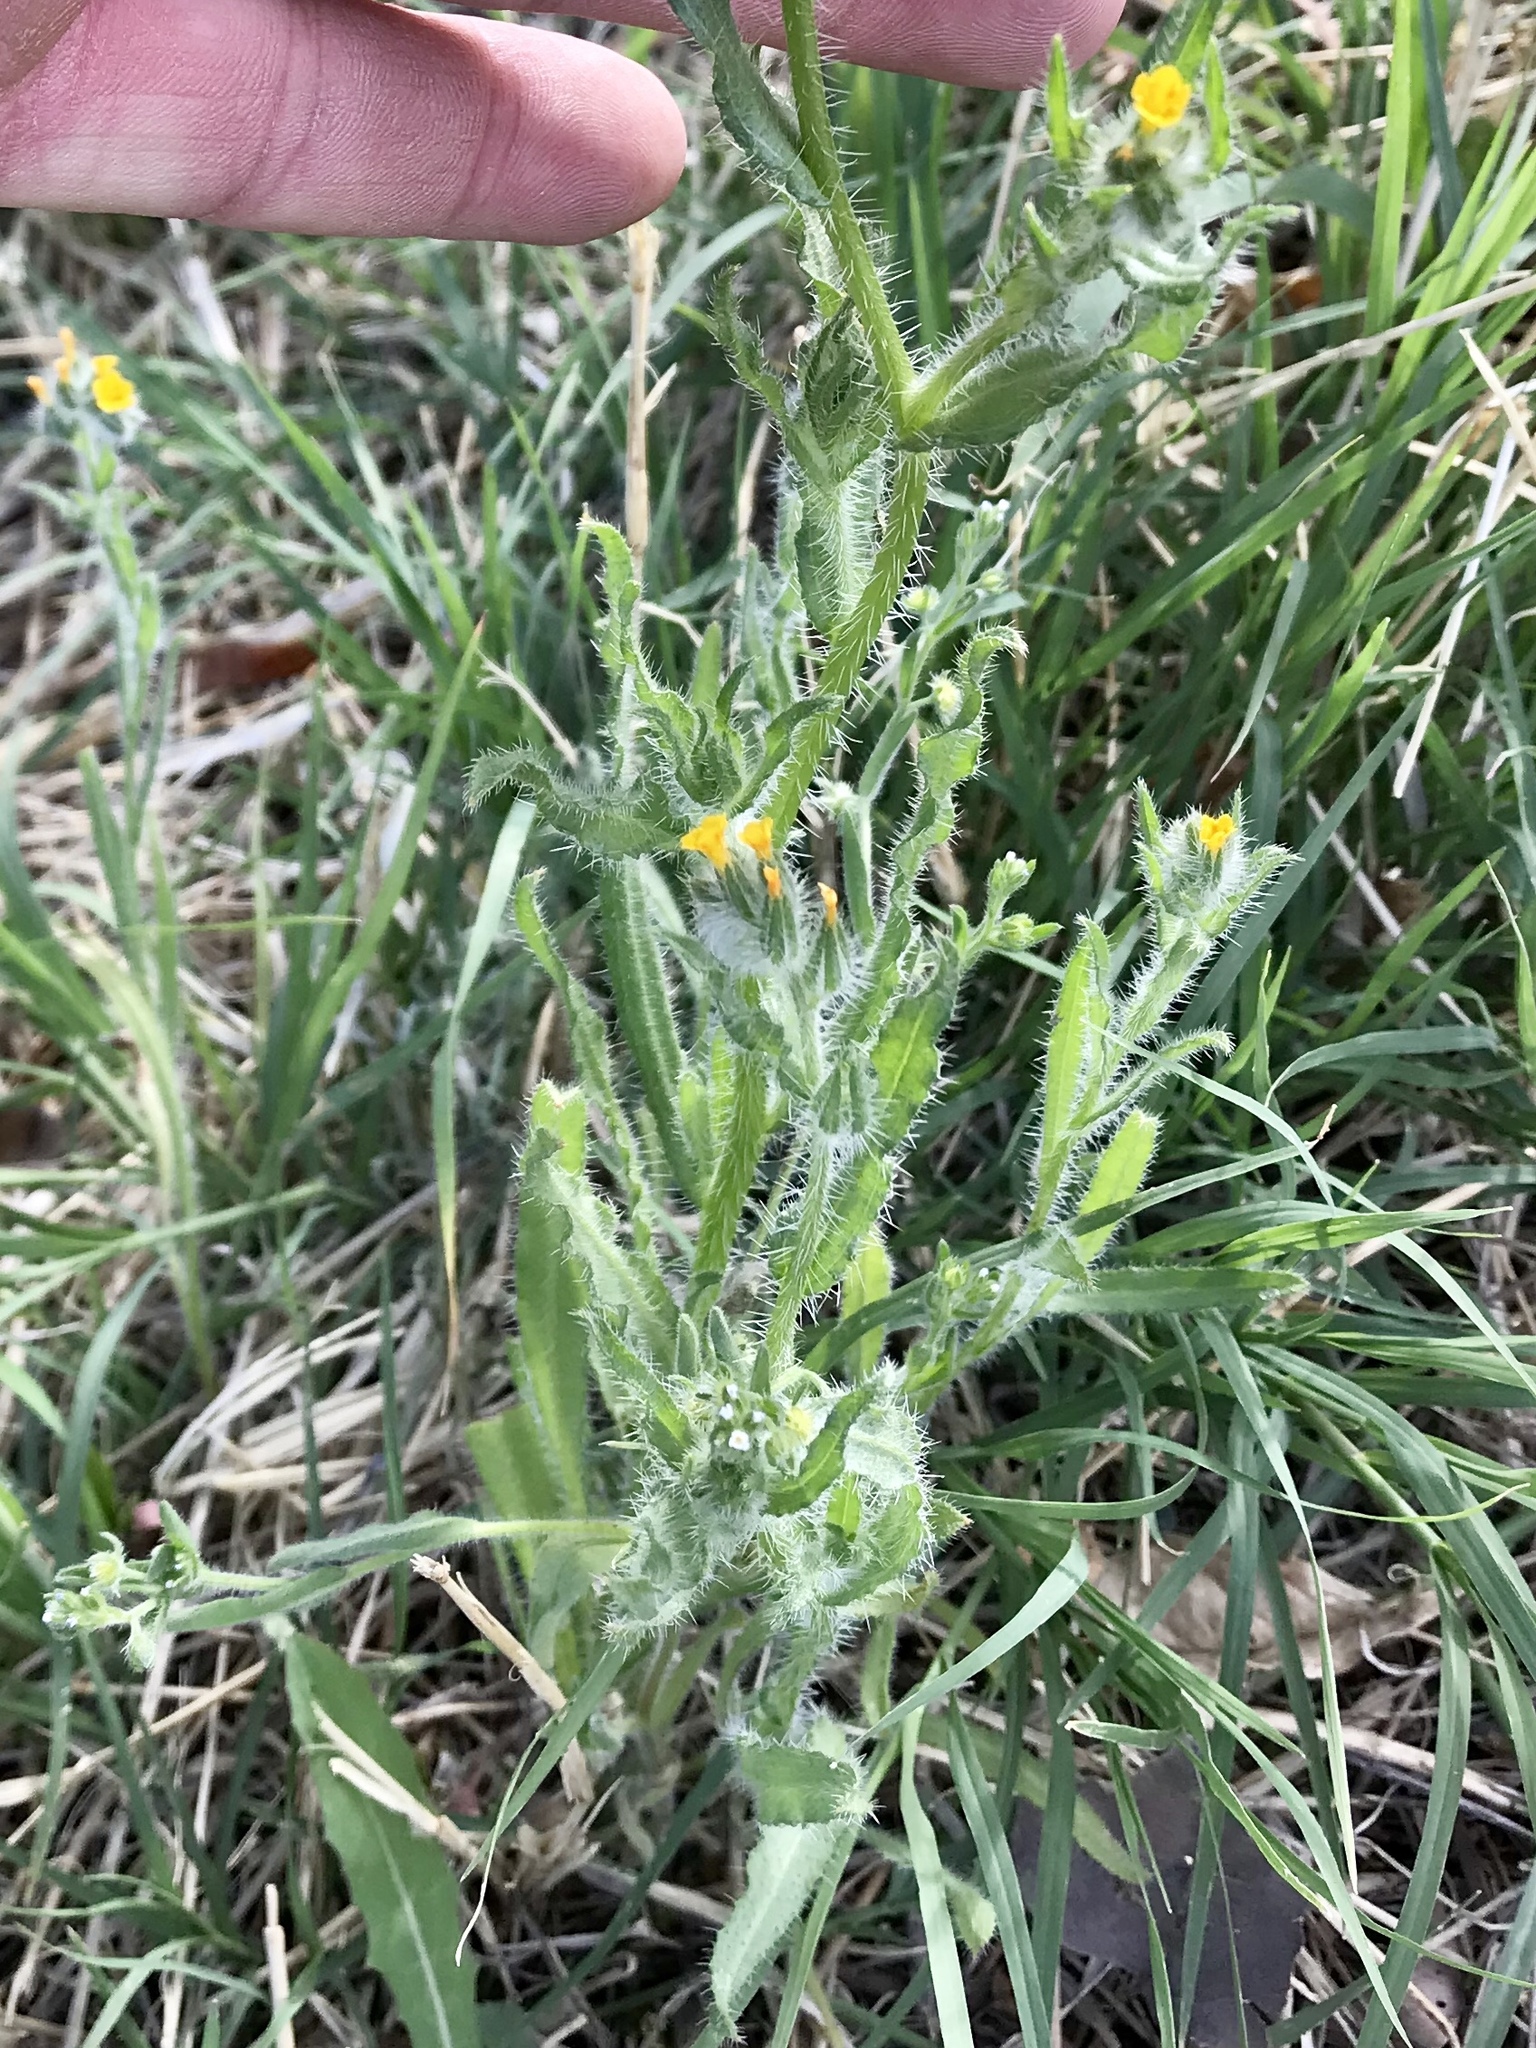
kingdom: Plantae
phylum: Tracheophyta
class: Magnoliopsida
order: Boraginales
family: Boraginaceae
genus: Amsinckia
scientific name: Amsinckia menziesii
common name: Menzies' fiddleneck
